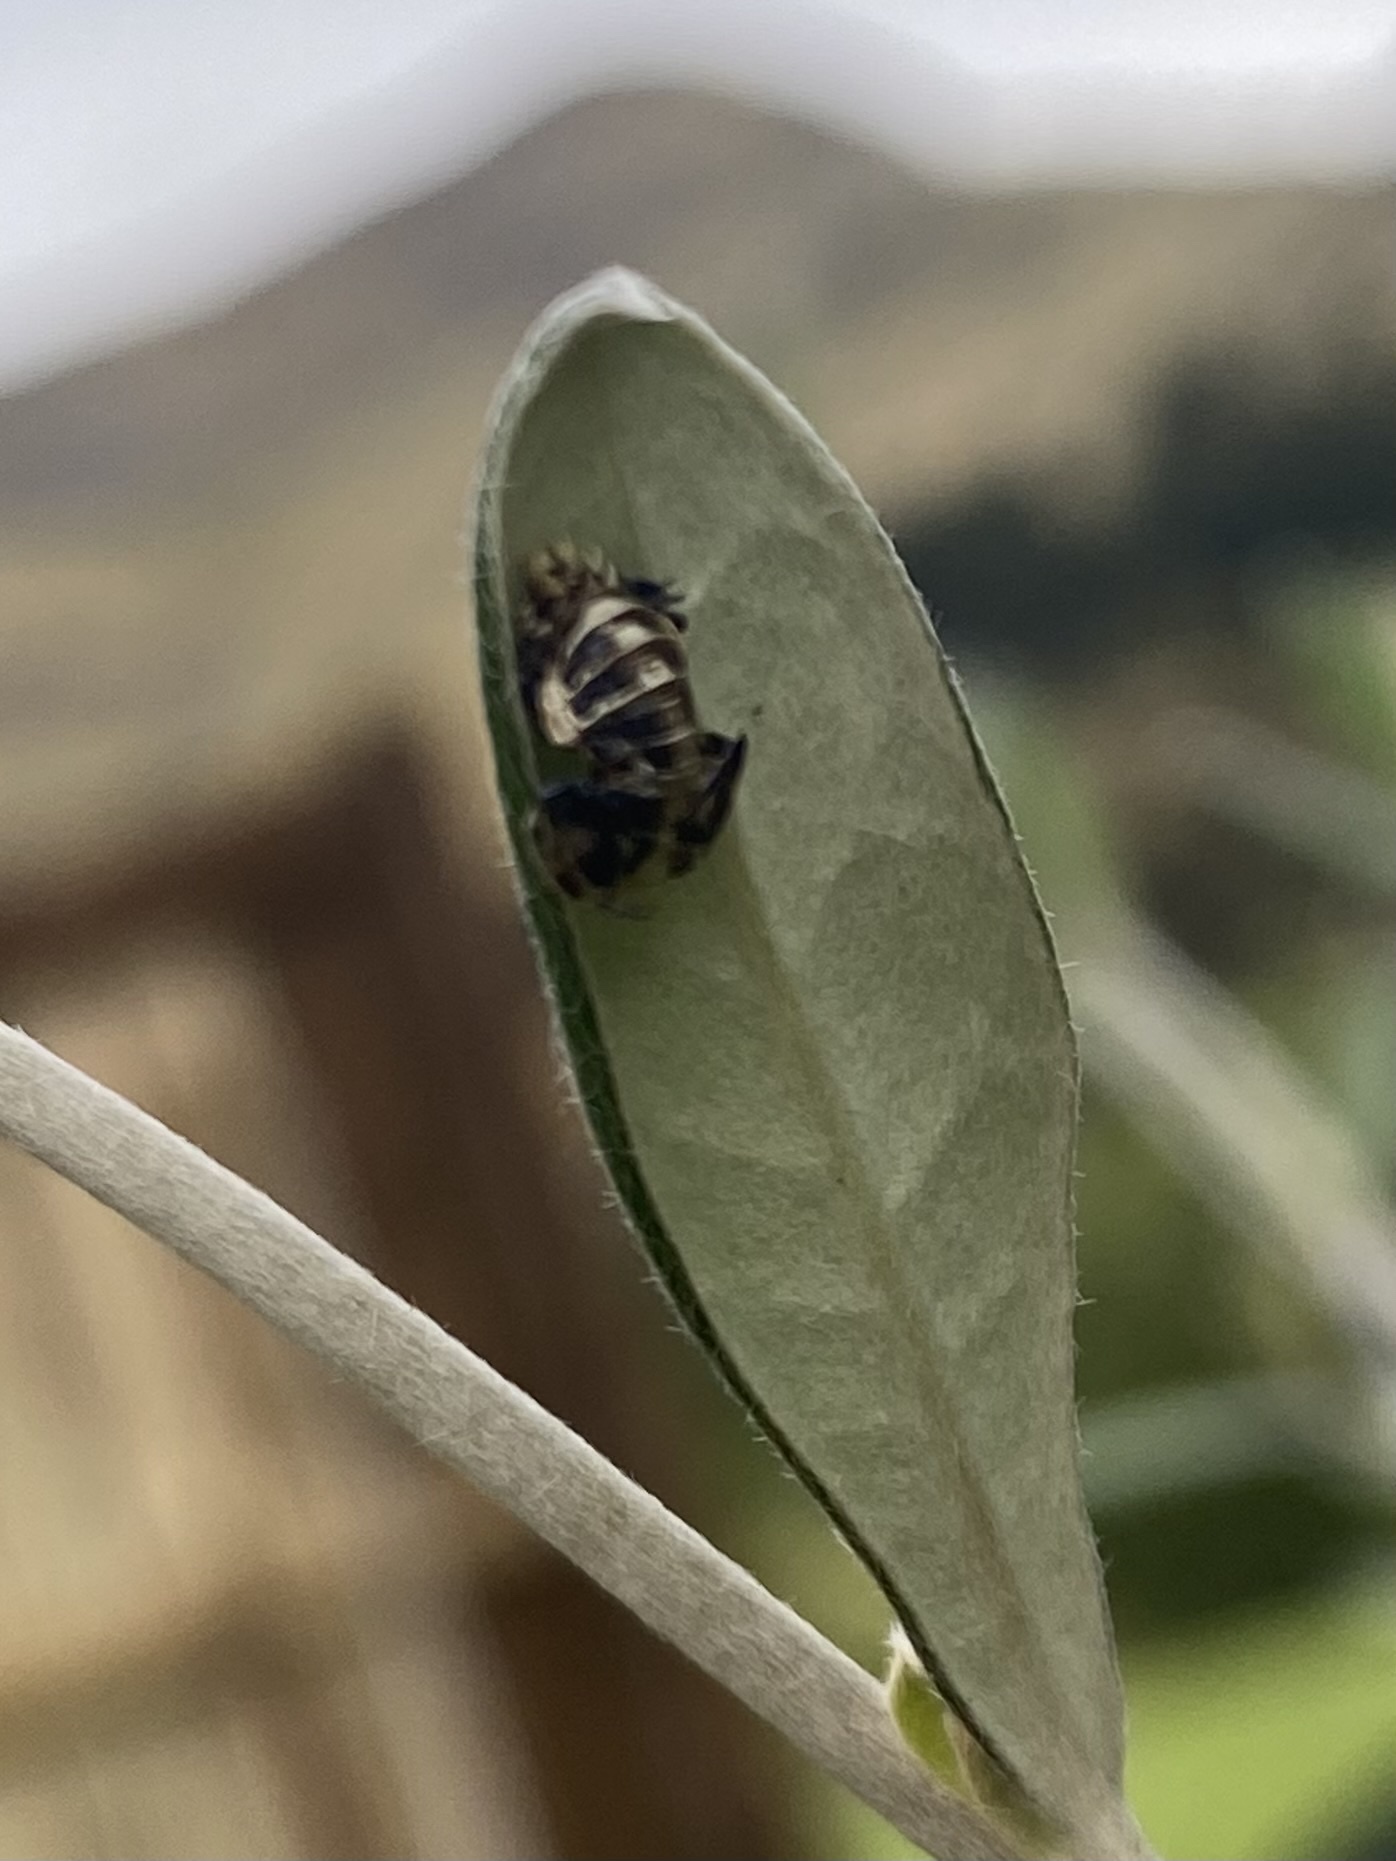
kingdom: Animalia
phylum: Arthropoda
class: Insecta
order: Coleoptera
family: Coccinellidae
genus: Harmonia
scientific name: Harmonia conformis
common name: Common spotted ladybird beetle
